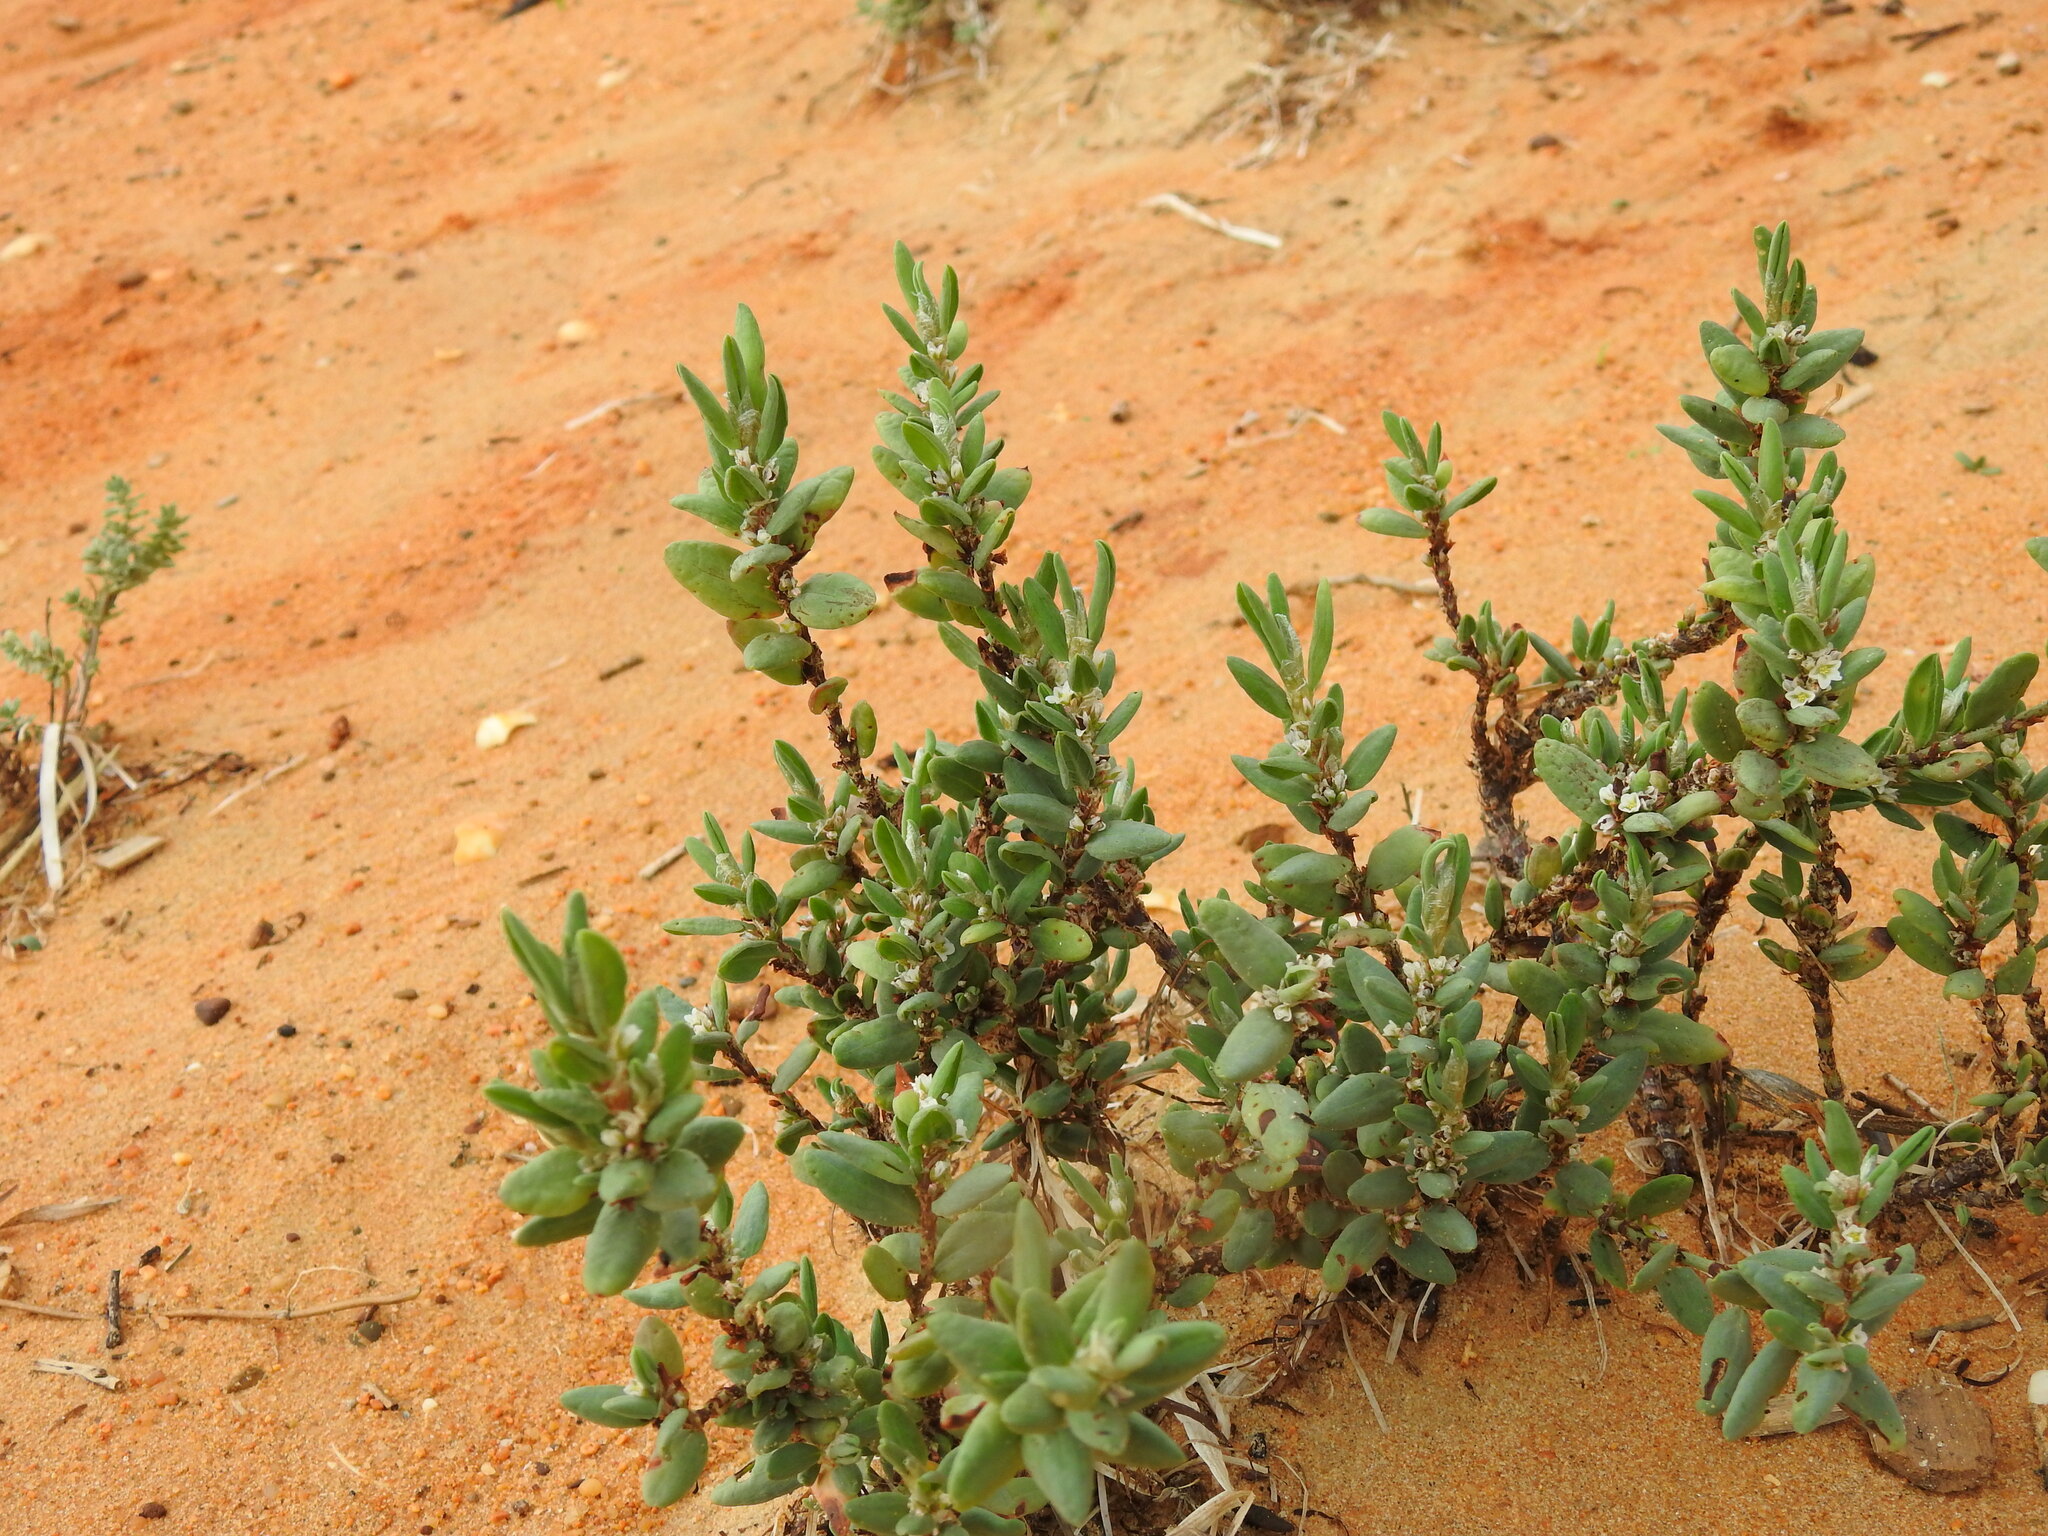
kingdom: Plantae
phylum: Tracheophyta
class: Magnoliopsida
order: Caryophyllales
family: Polygonaceae
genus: Polygonum
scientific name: Polygonum maritimum
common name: Sea knotgrass
